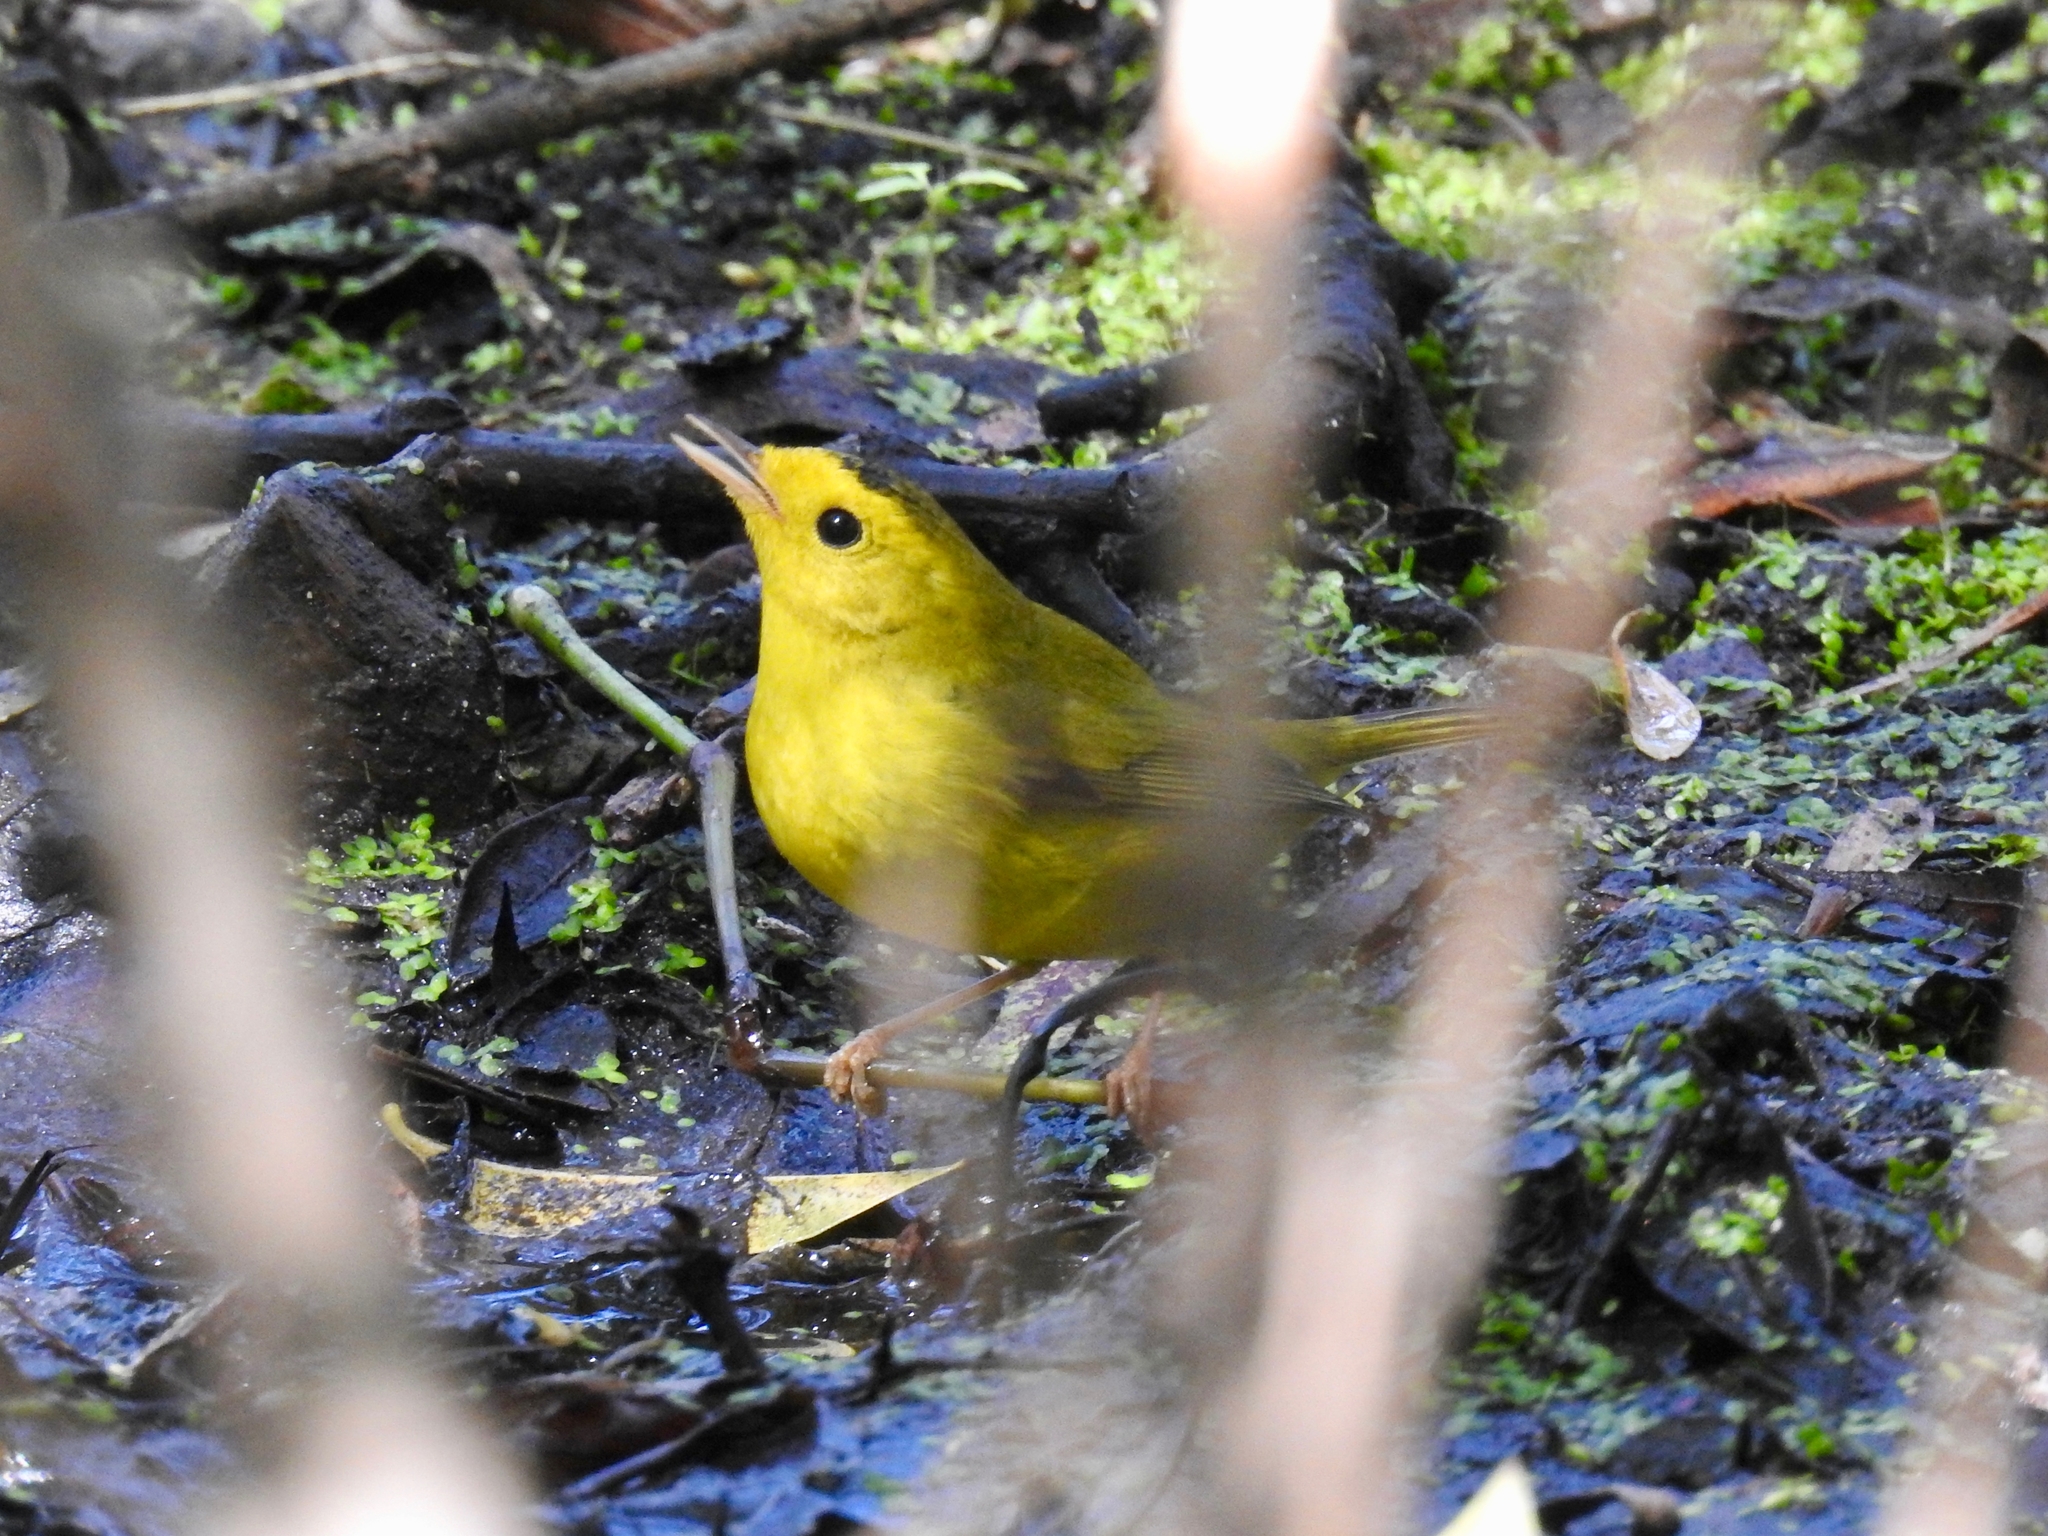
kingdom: Animalia
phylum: Chordata
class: Aves
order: Passeriformes
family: Parulidae
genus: Cardellina
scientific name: Cardellina pusilla
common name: Wilson's warbler
